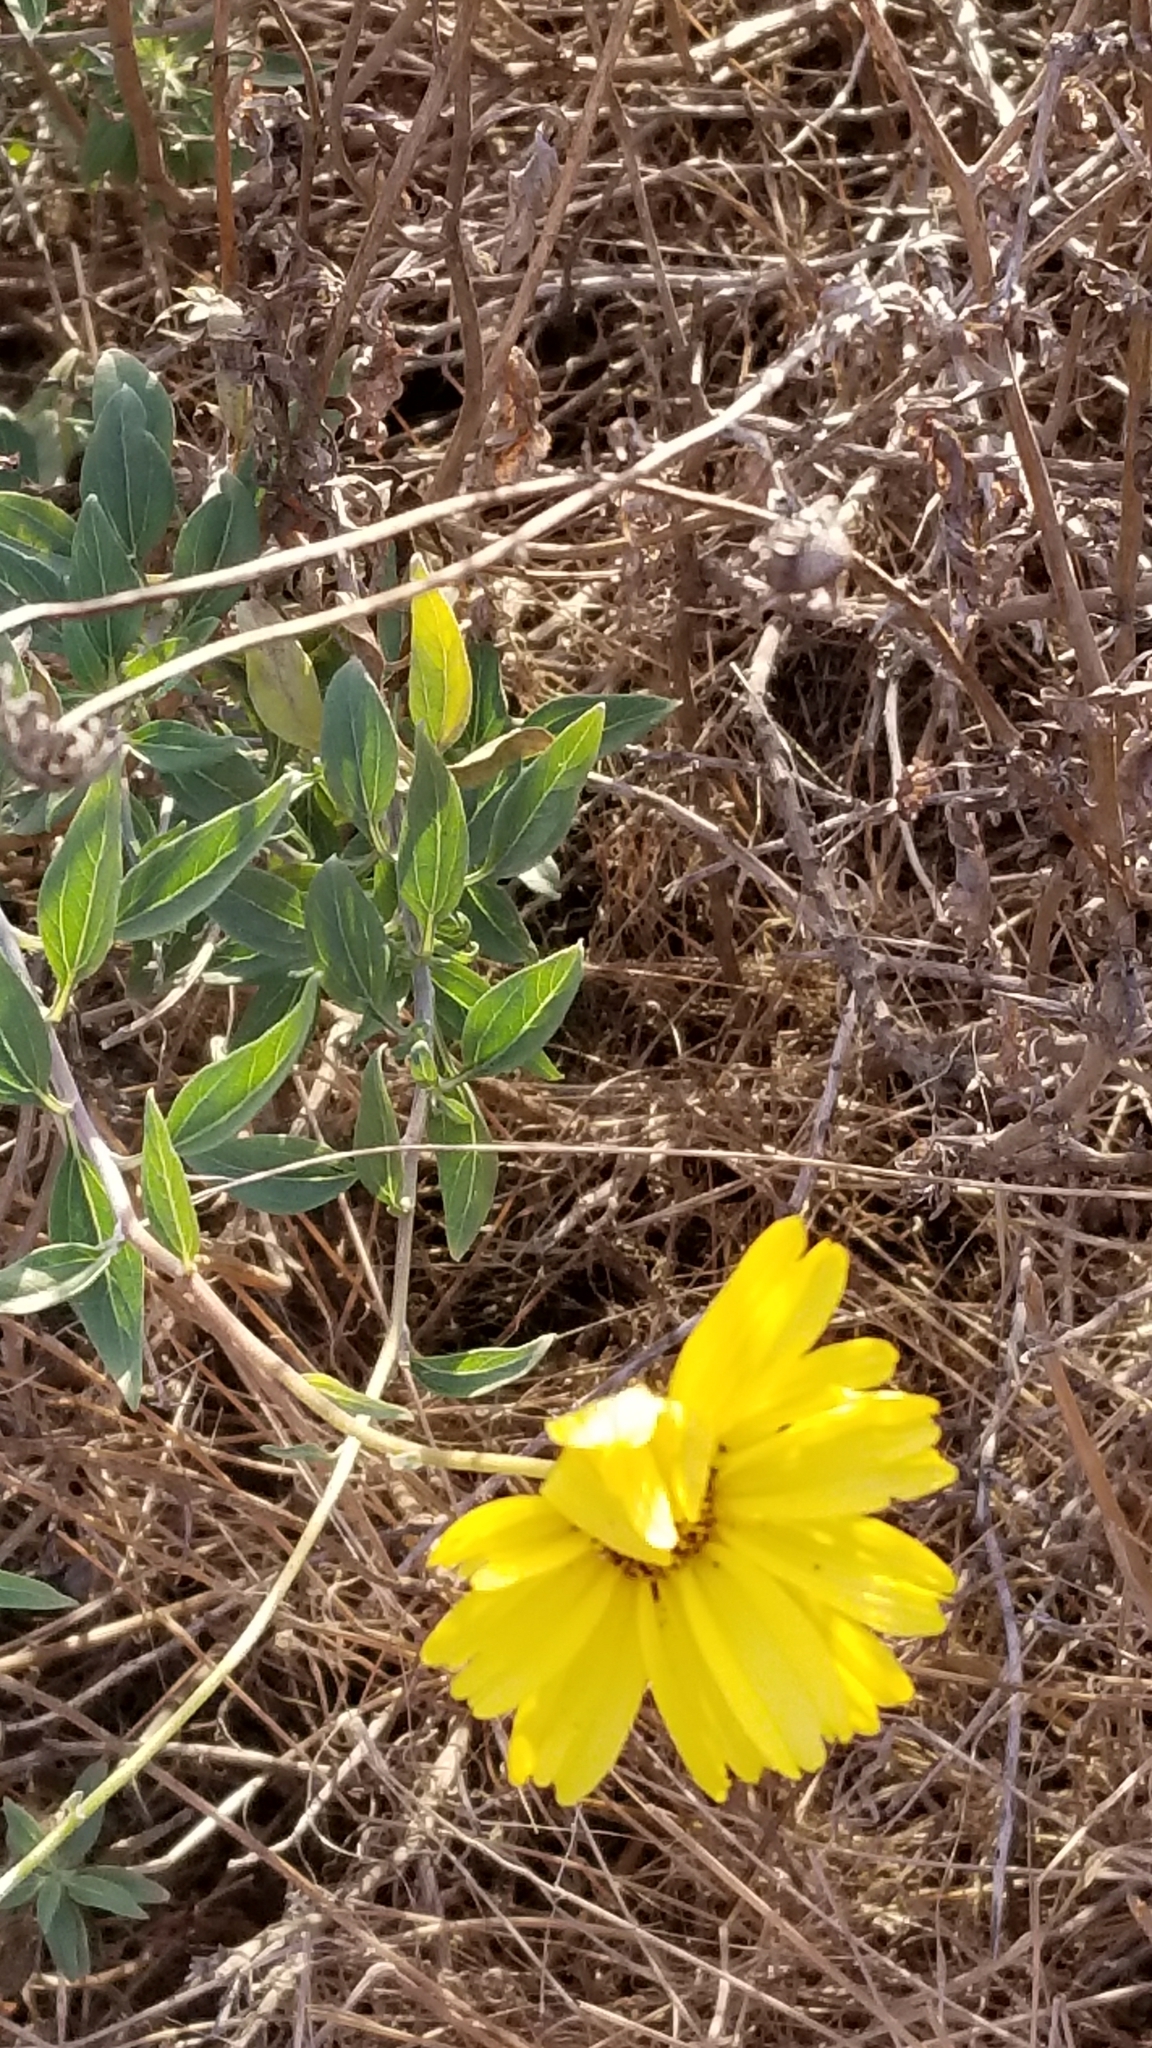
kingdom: Plantae
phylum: Tracheophyta
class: Magnoliopsida
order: Asterales
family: Asteraceae
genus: Encelia
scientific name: Encelia californica
